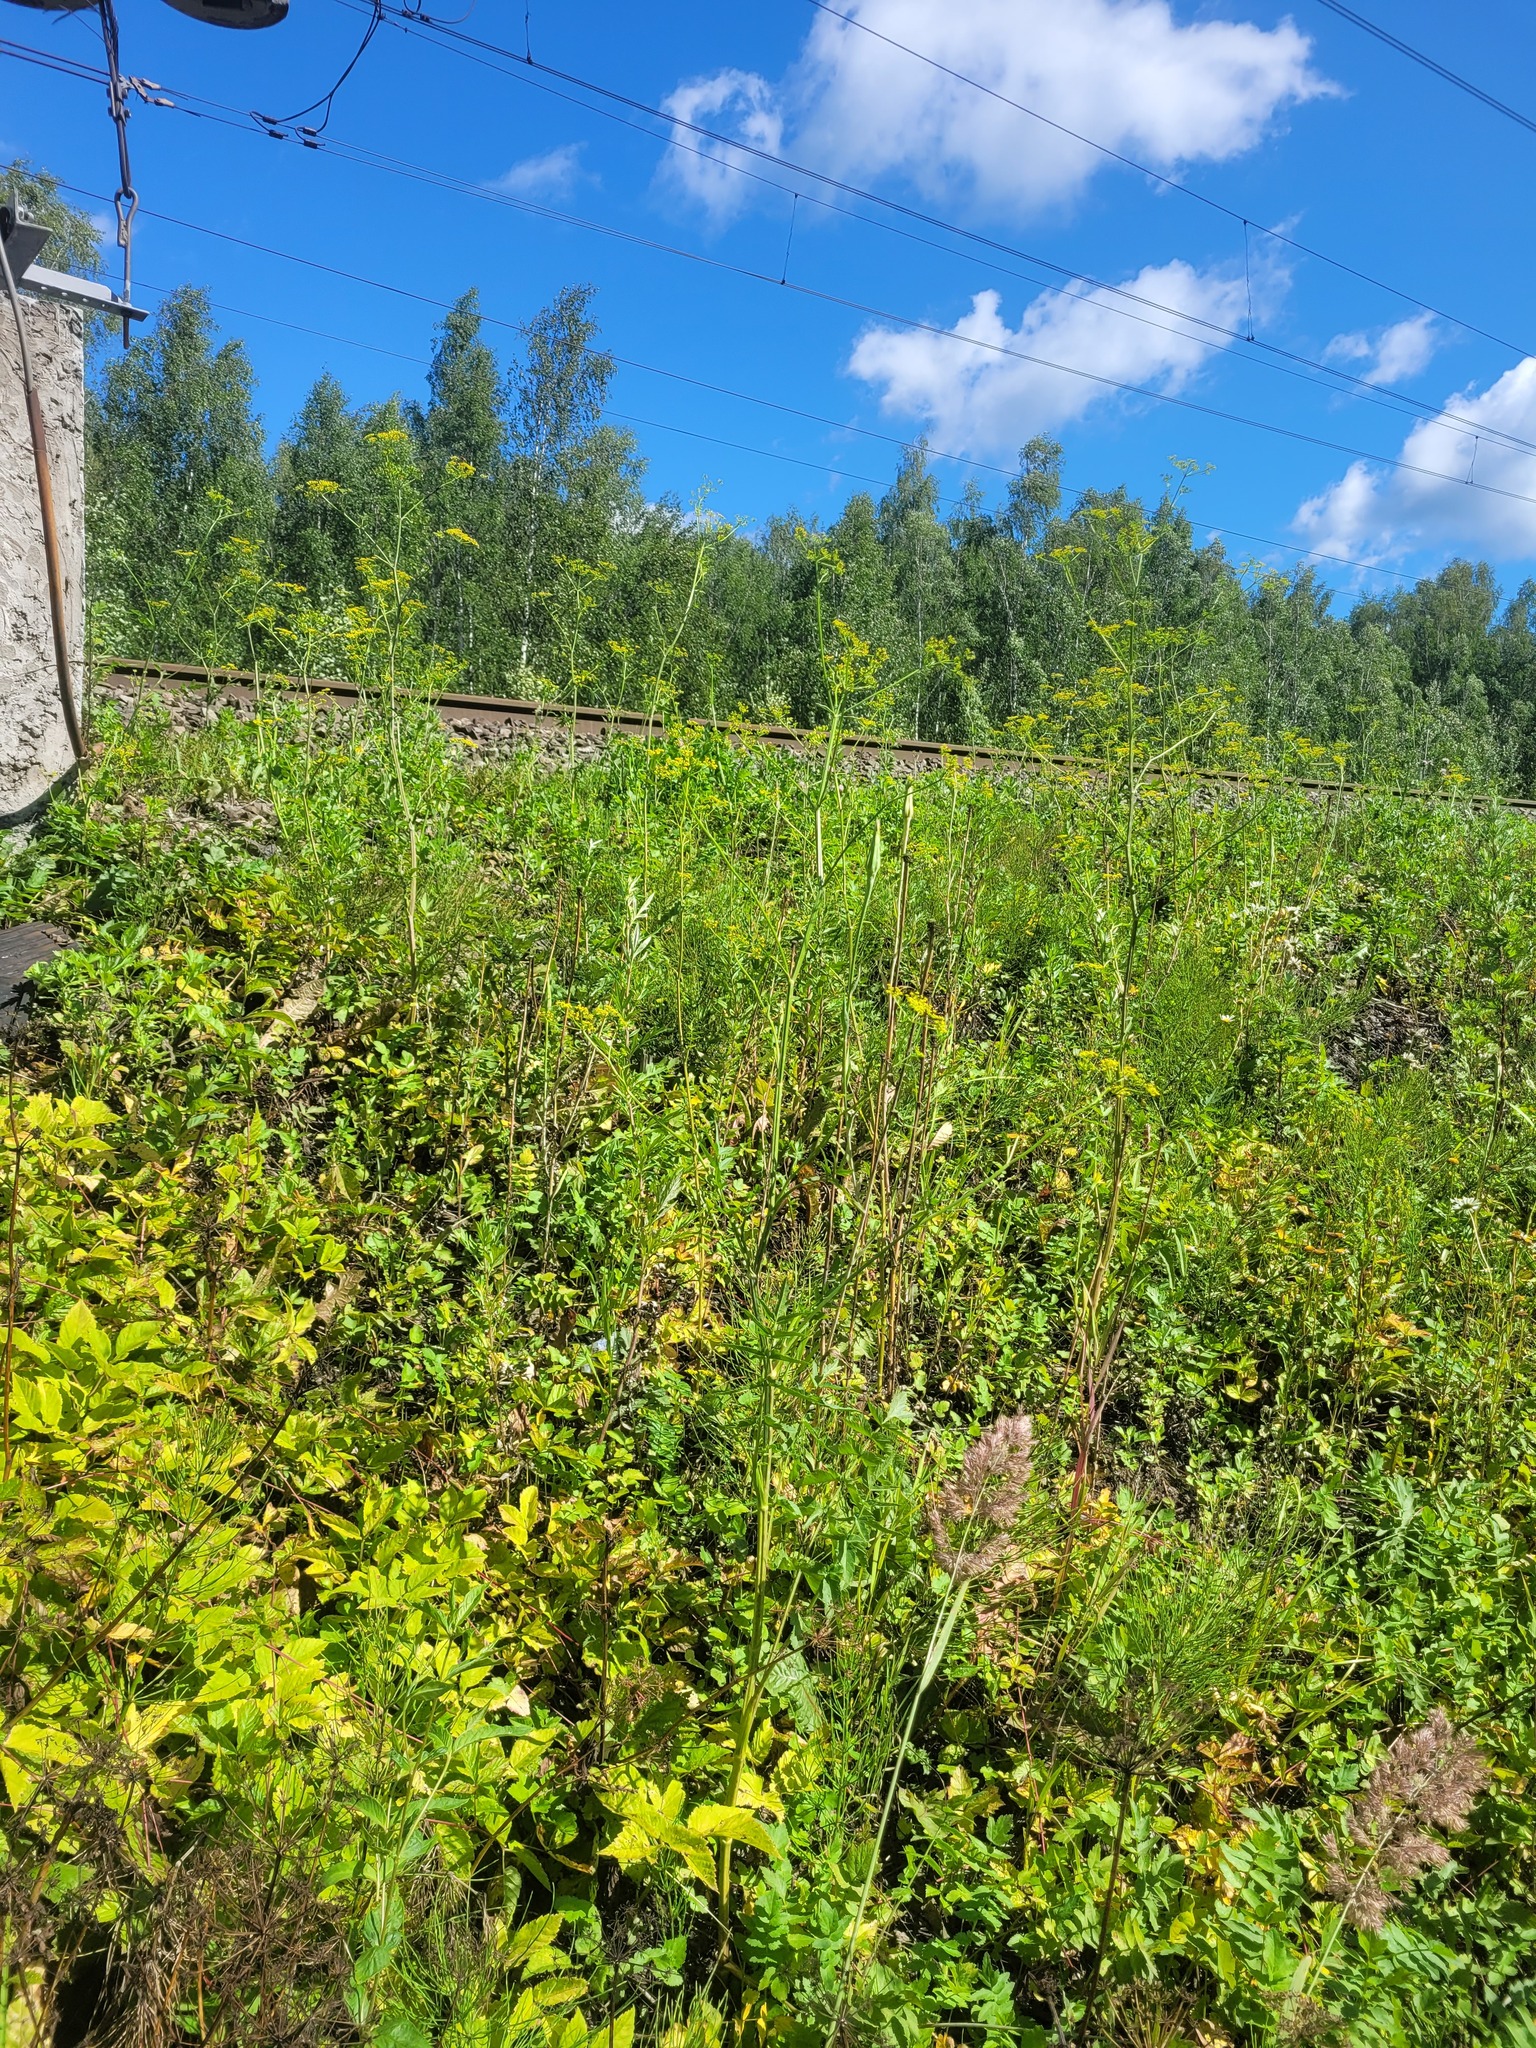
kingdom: Plantae
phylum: Tracheophyta
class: Magnoliopsida
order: Apiales
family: Apiaceae
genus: Pastinaca
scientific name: Pastinaca sativa
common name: Wild parsnip
